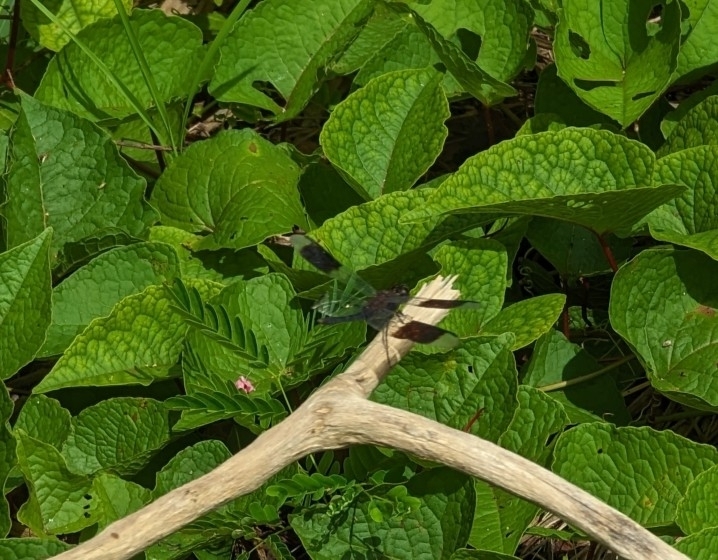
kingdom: Animalia
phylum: Arthropoda
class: Insecta
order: Odonata
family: Libellulidae
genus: Erythrodiplax
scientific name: Erythrodiplax umbrata
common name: Band-winged dragonlet
